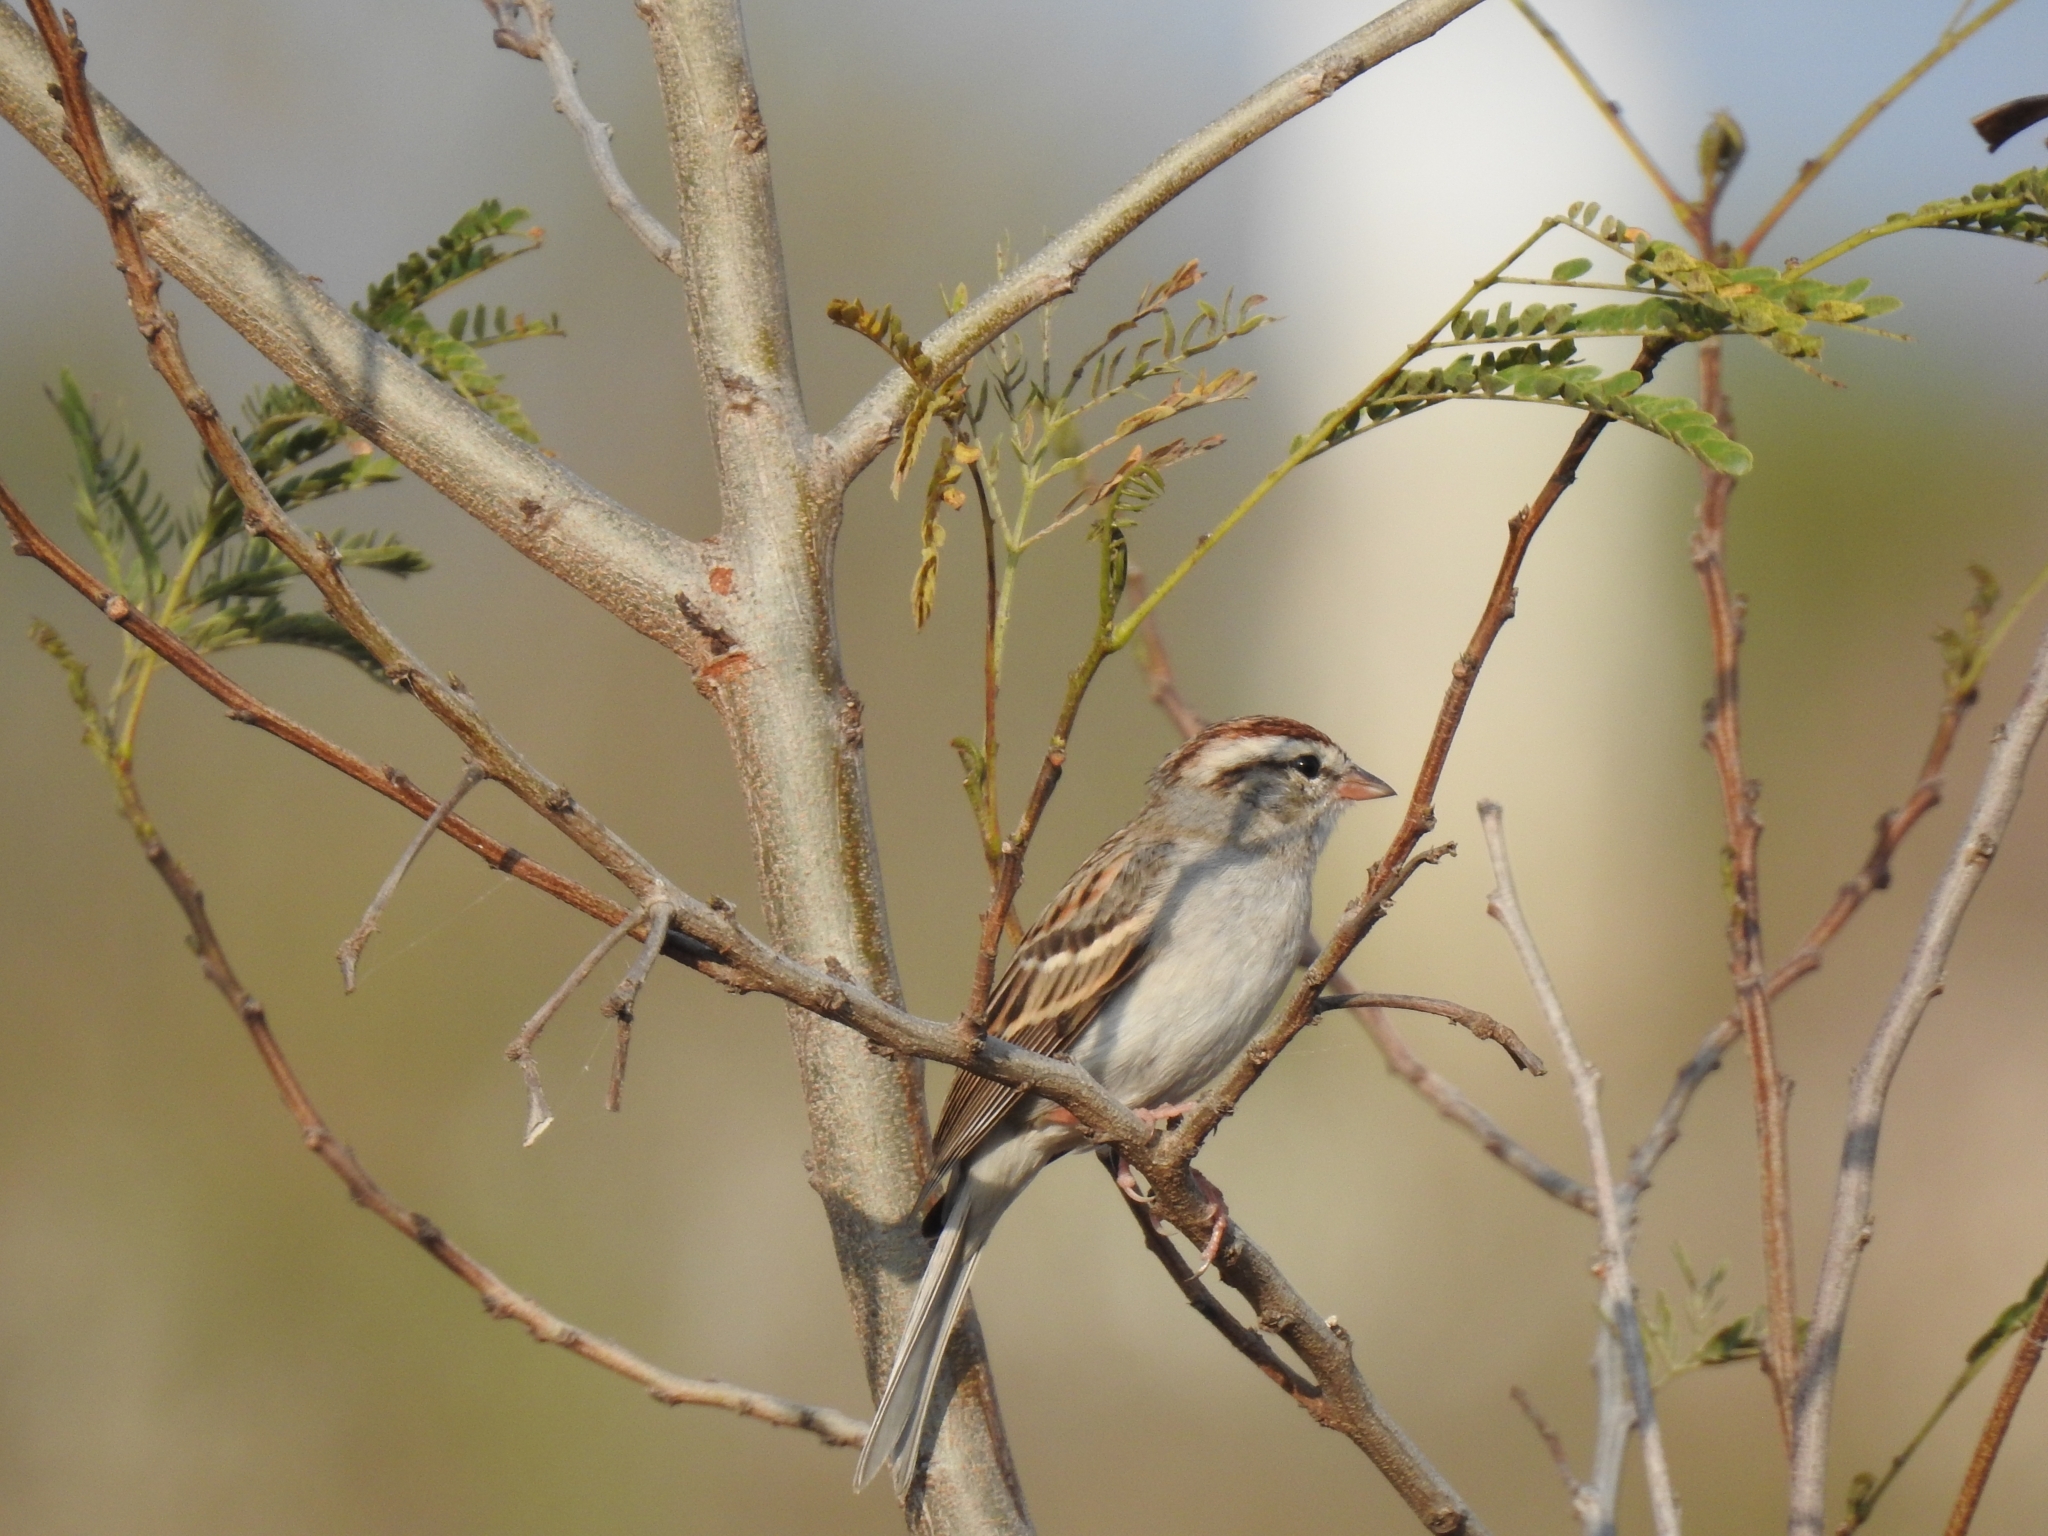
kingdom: Animalia
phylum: Chordata
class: Aves
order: Passeriformes
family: Passerellidae
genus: Spizella
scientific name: Spizella passerina
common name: Chipping sparrow
